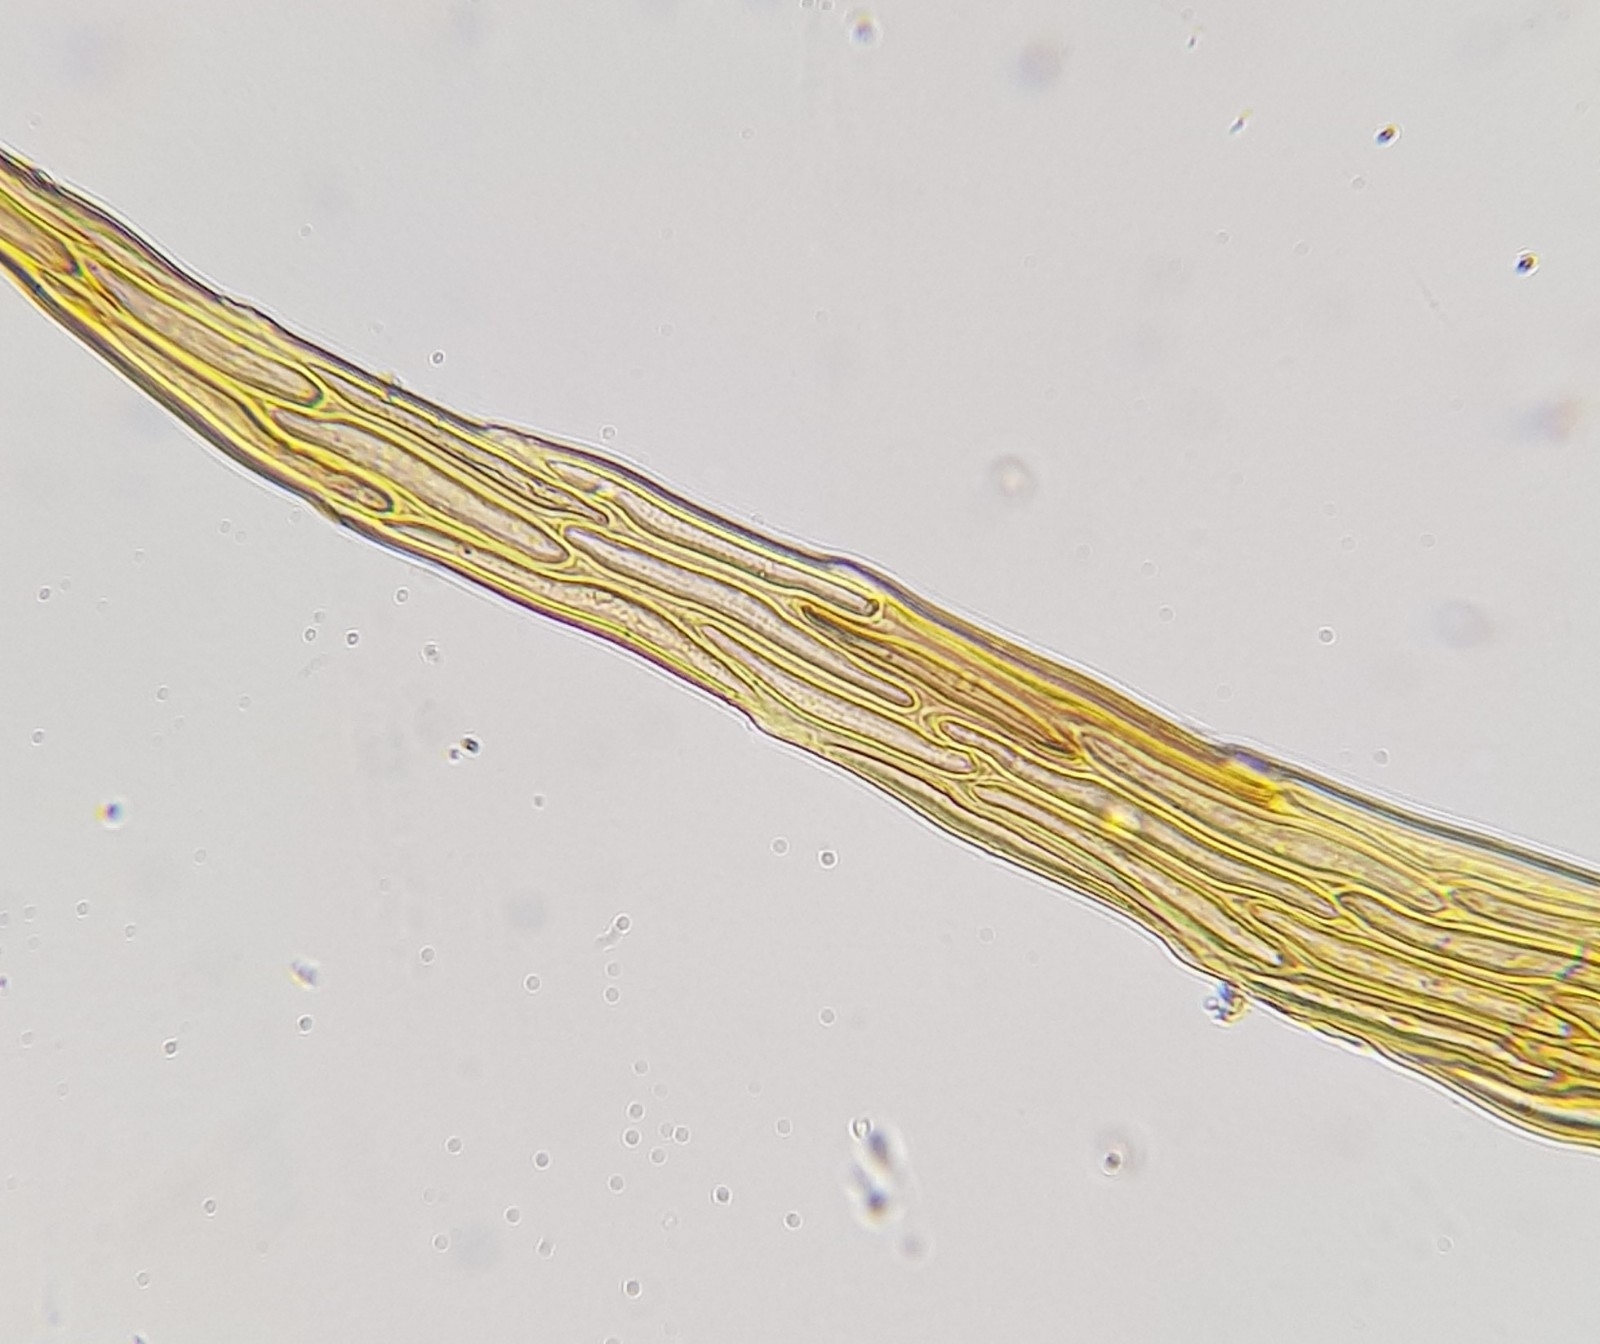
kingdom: Plantae
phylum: Bryophyta
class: Bryopsida
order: Hypnales
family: Hypnaceae
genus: Hypnum
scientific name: Hypnum cupressiforme
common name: Cypress-leaved plait-moss
